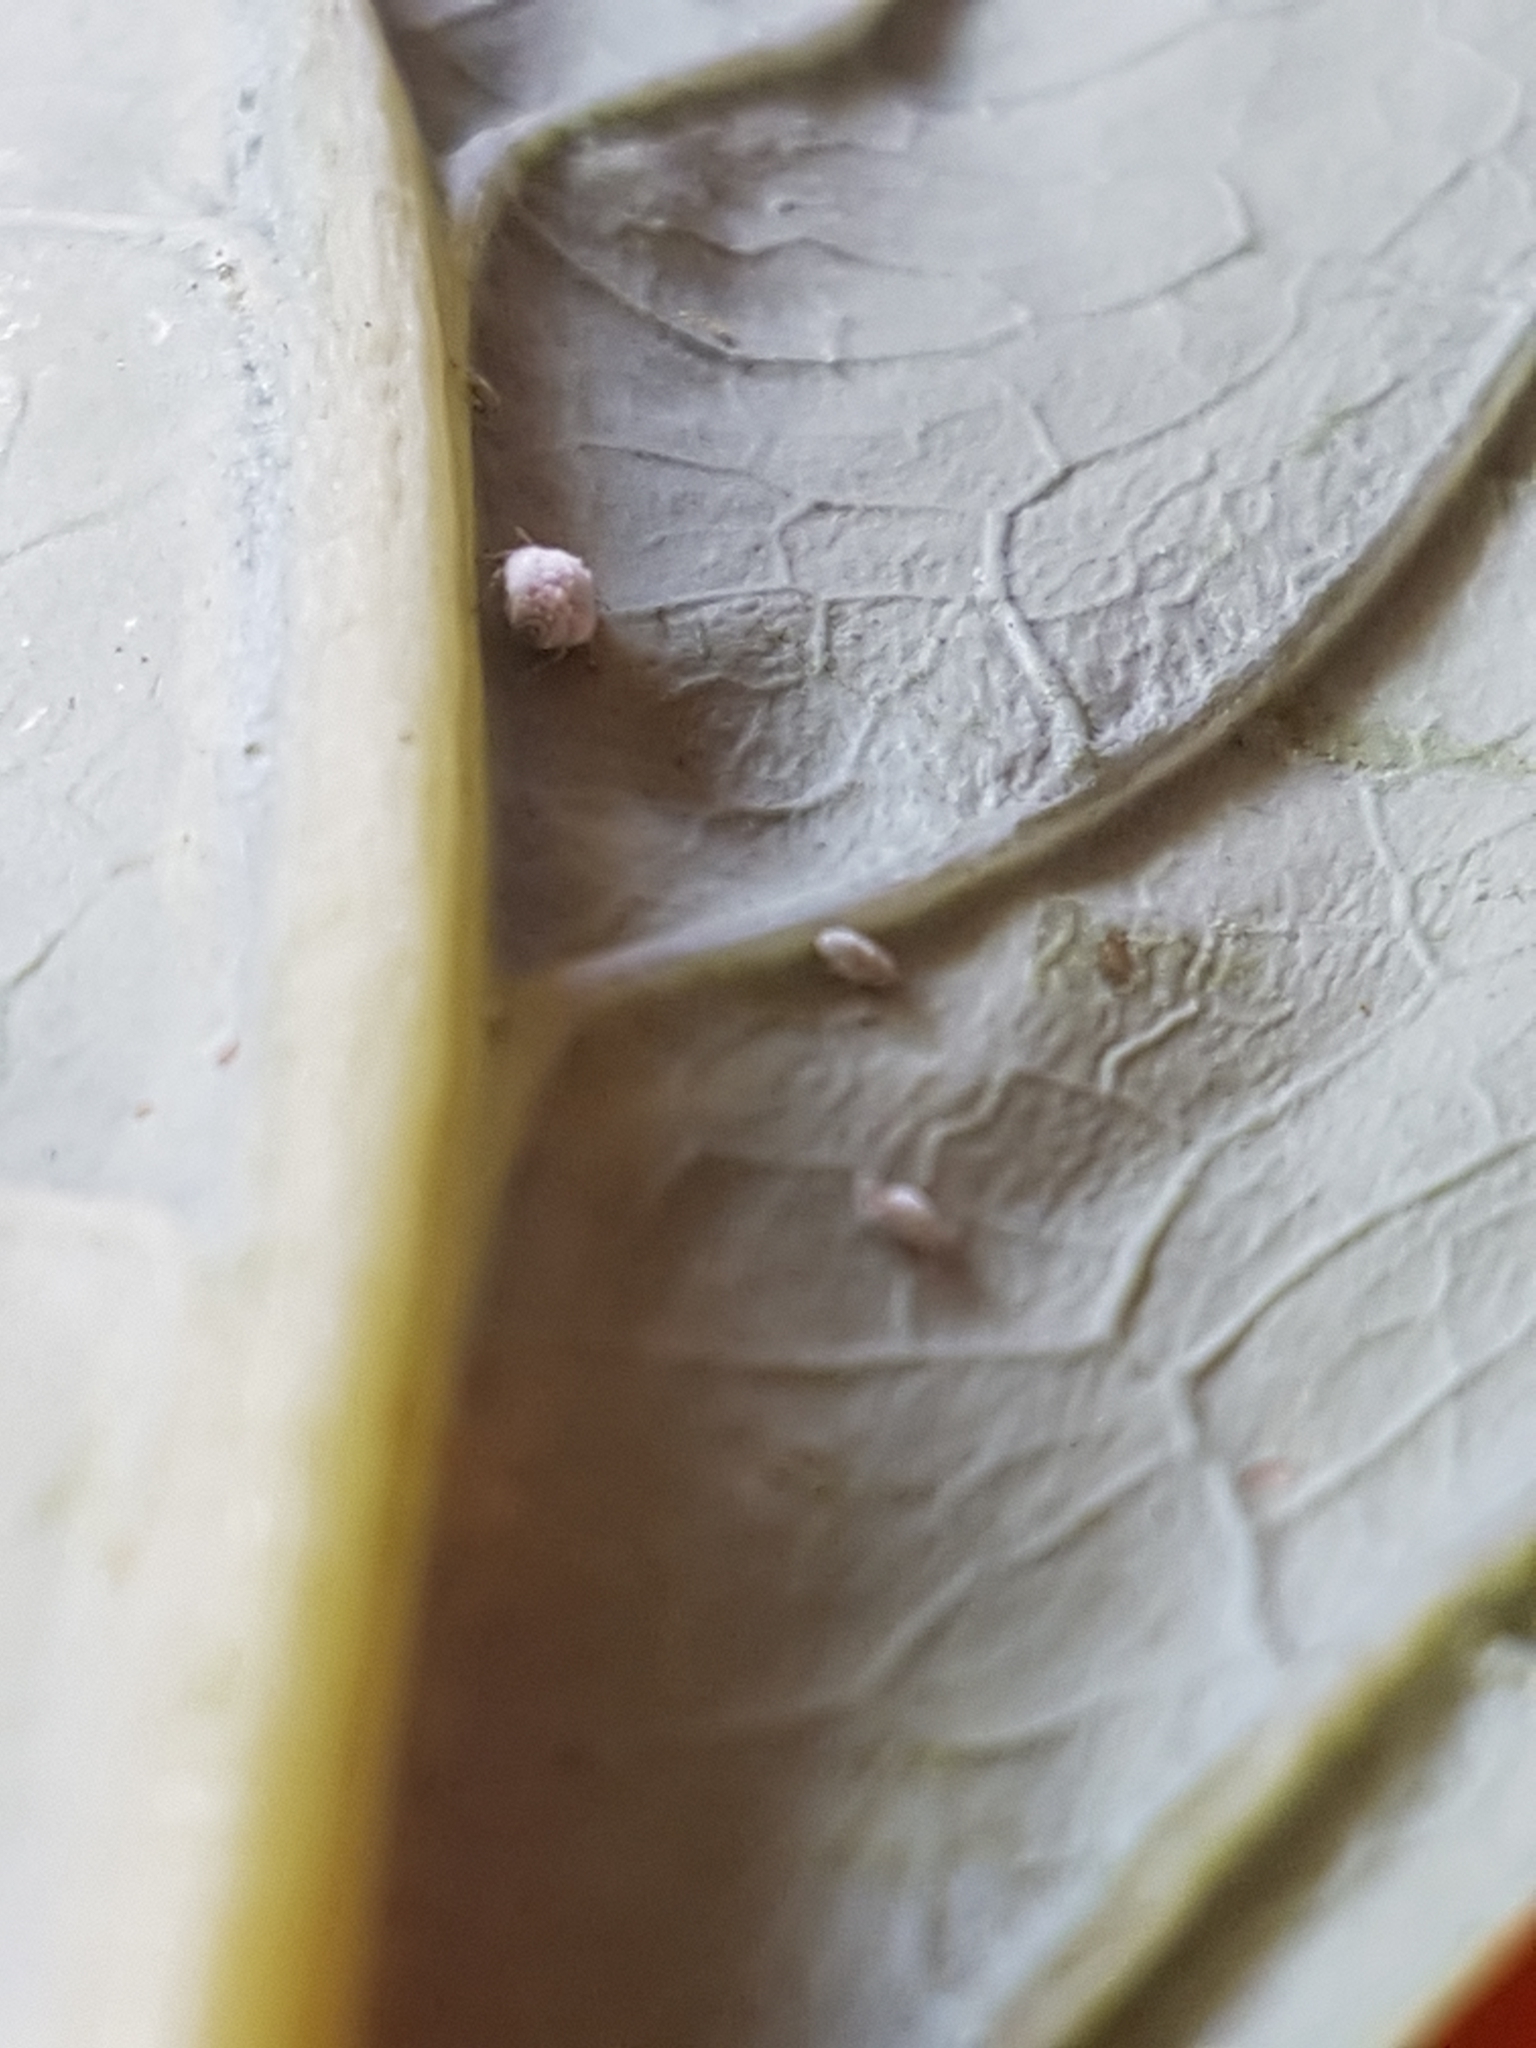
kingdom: Animalia
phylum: Arthropoda
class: Insecta
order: Hemiptera
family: Aphididae
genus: Brevicoryne
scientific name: Brevicoryne brassicae
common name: Cabbage aphid
